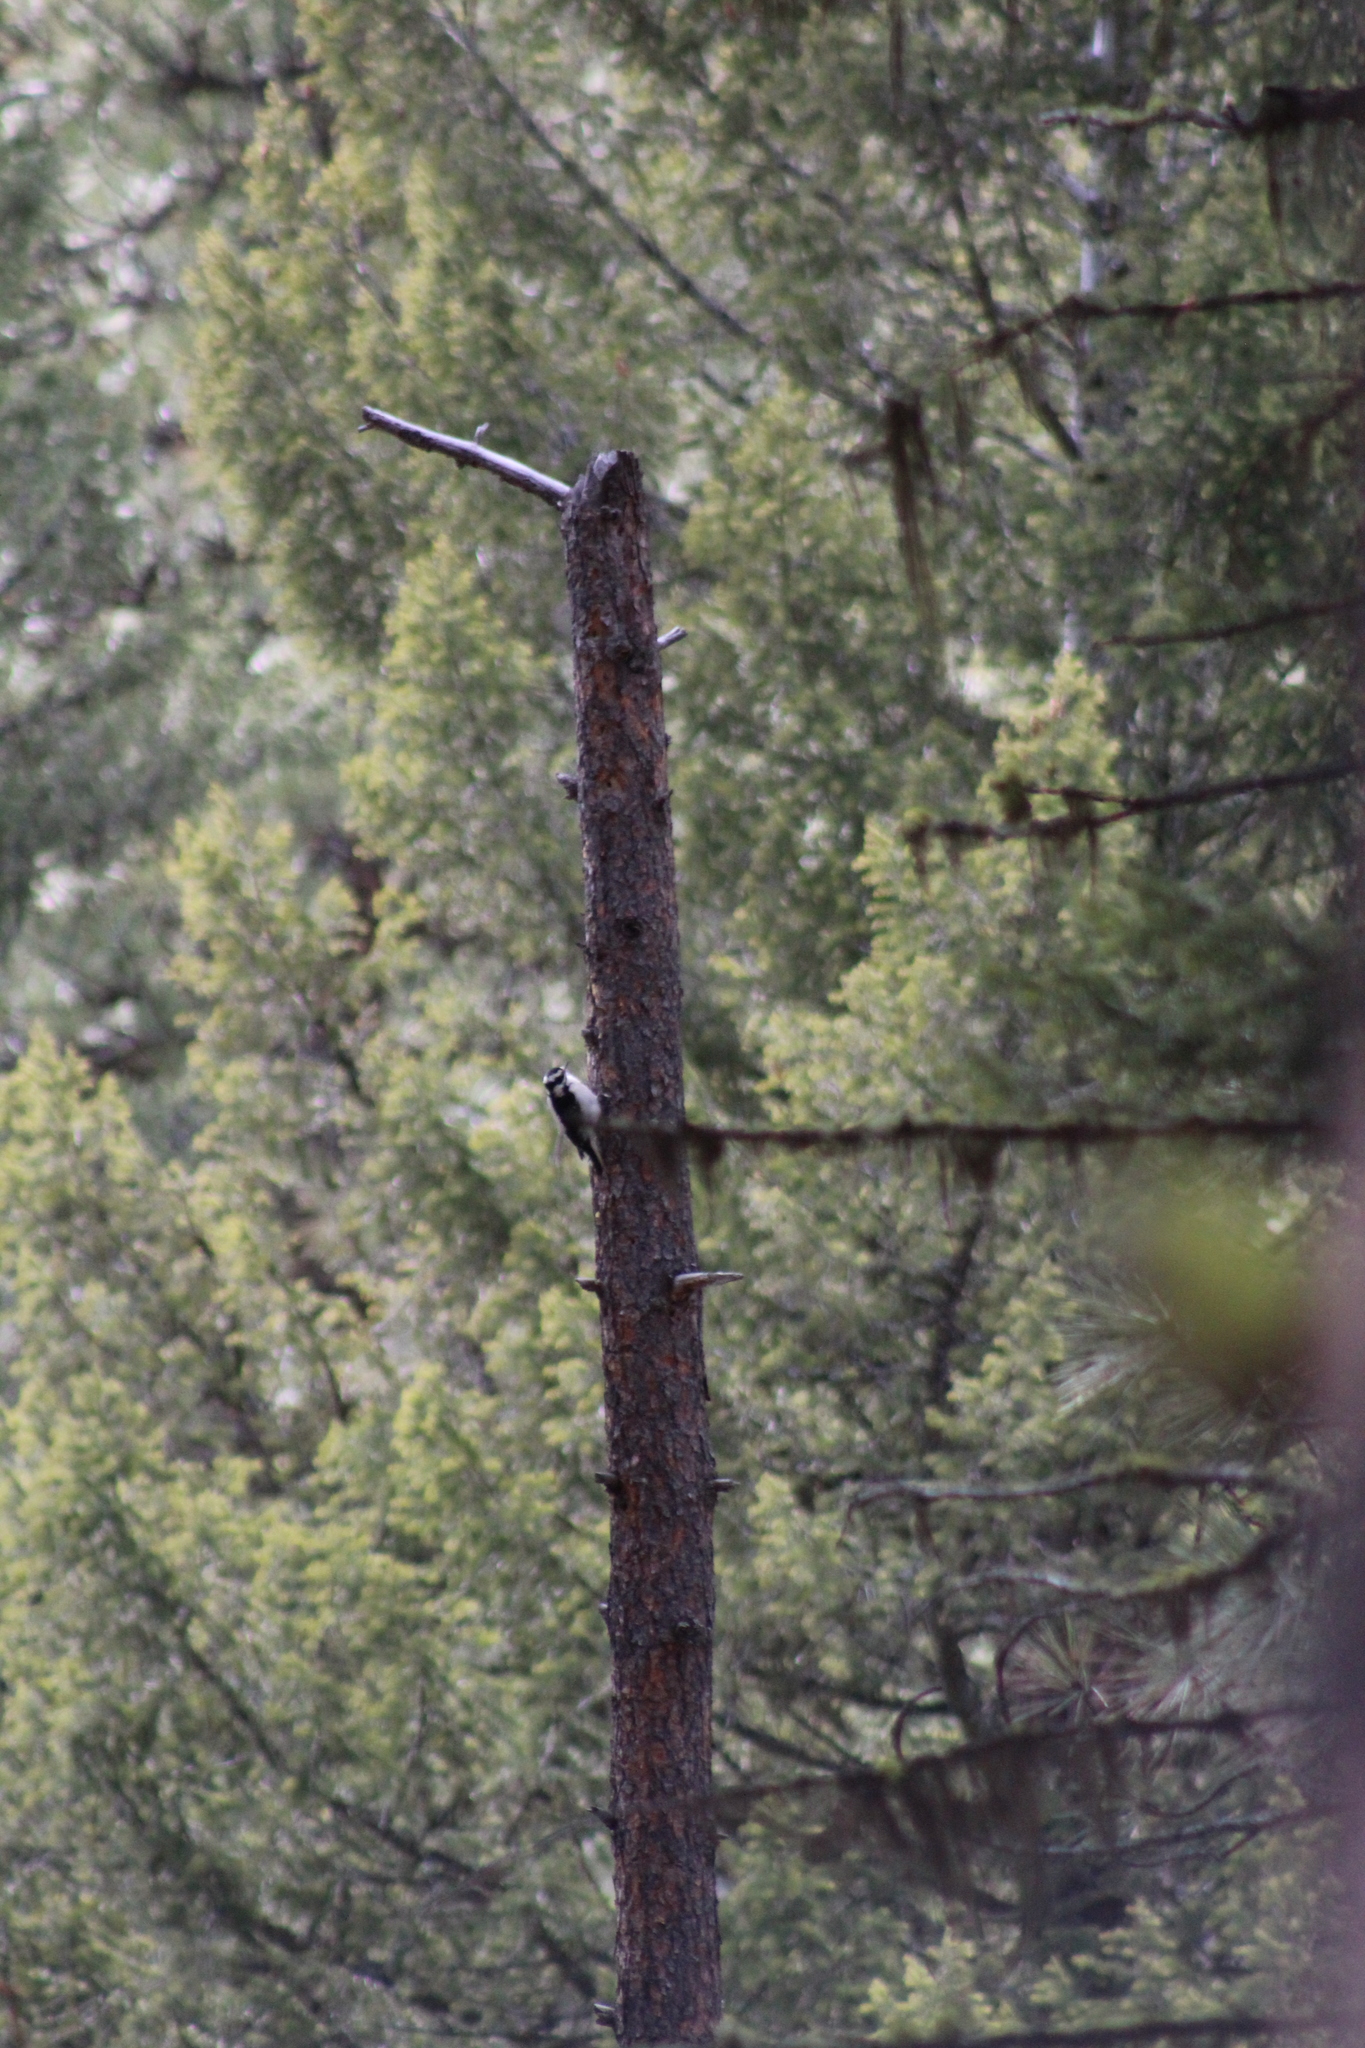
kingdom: Animalia
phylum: Chordata
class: Aves
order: Piciformes
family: Picidae
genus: Dryobates
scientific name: Dryobates pubescens
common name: Downy woodpecker
